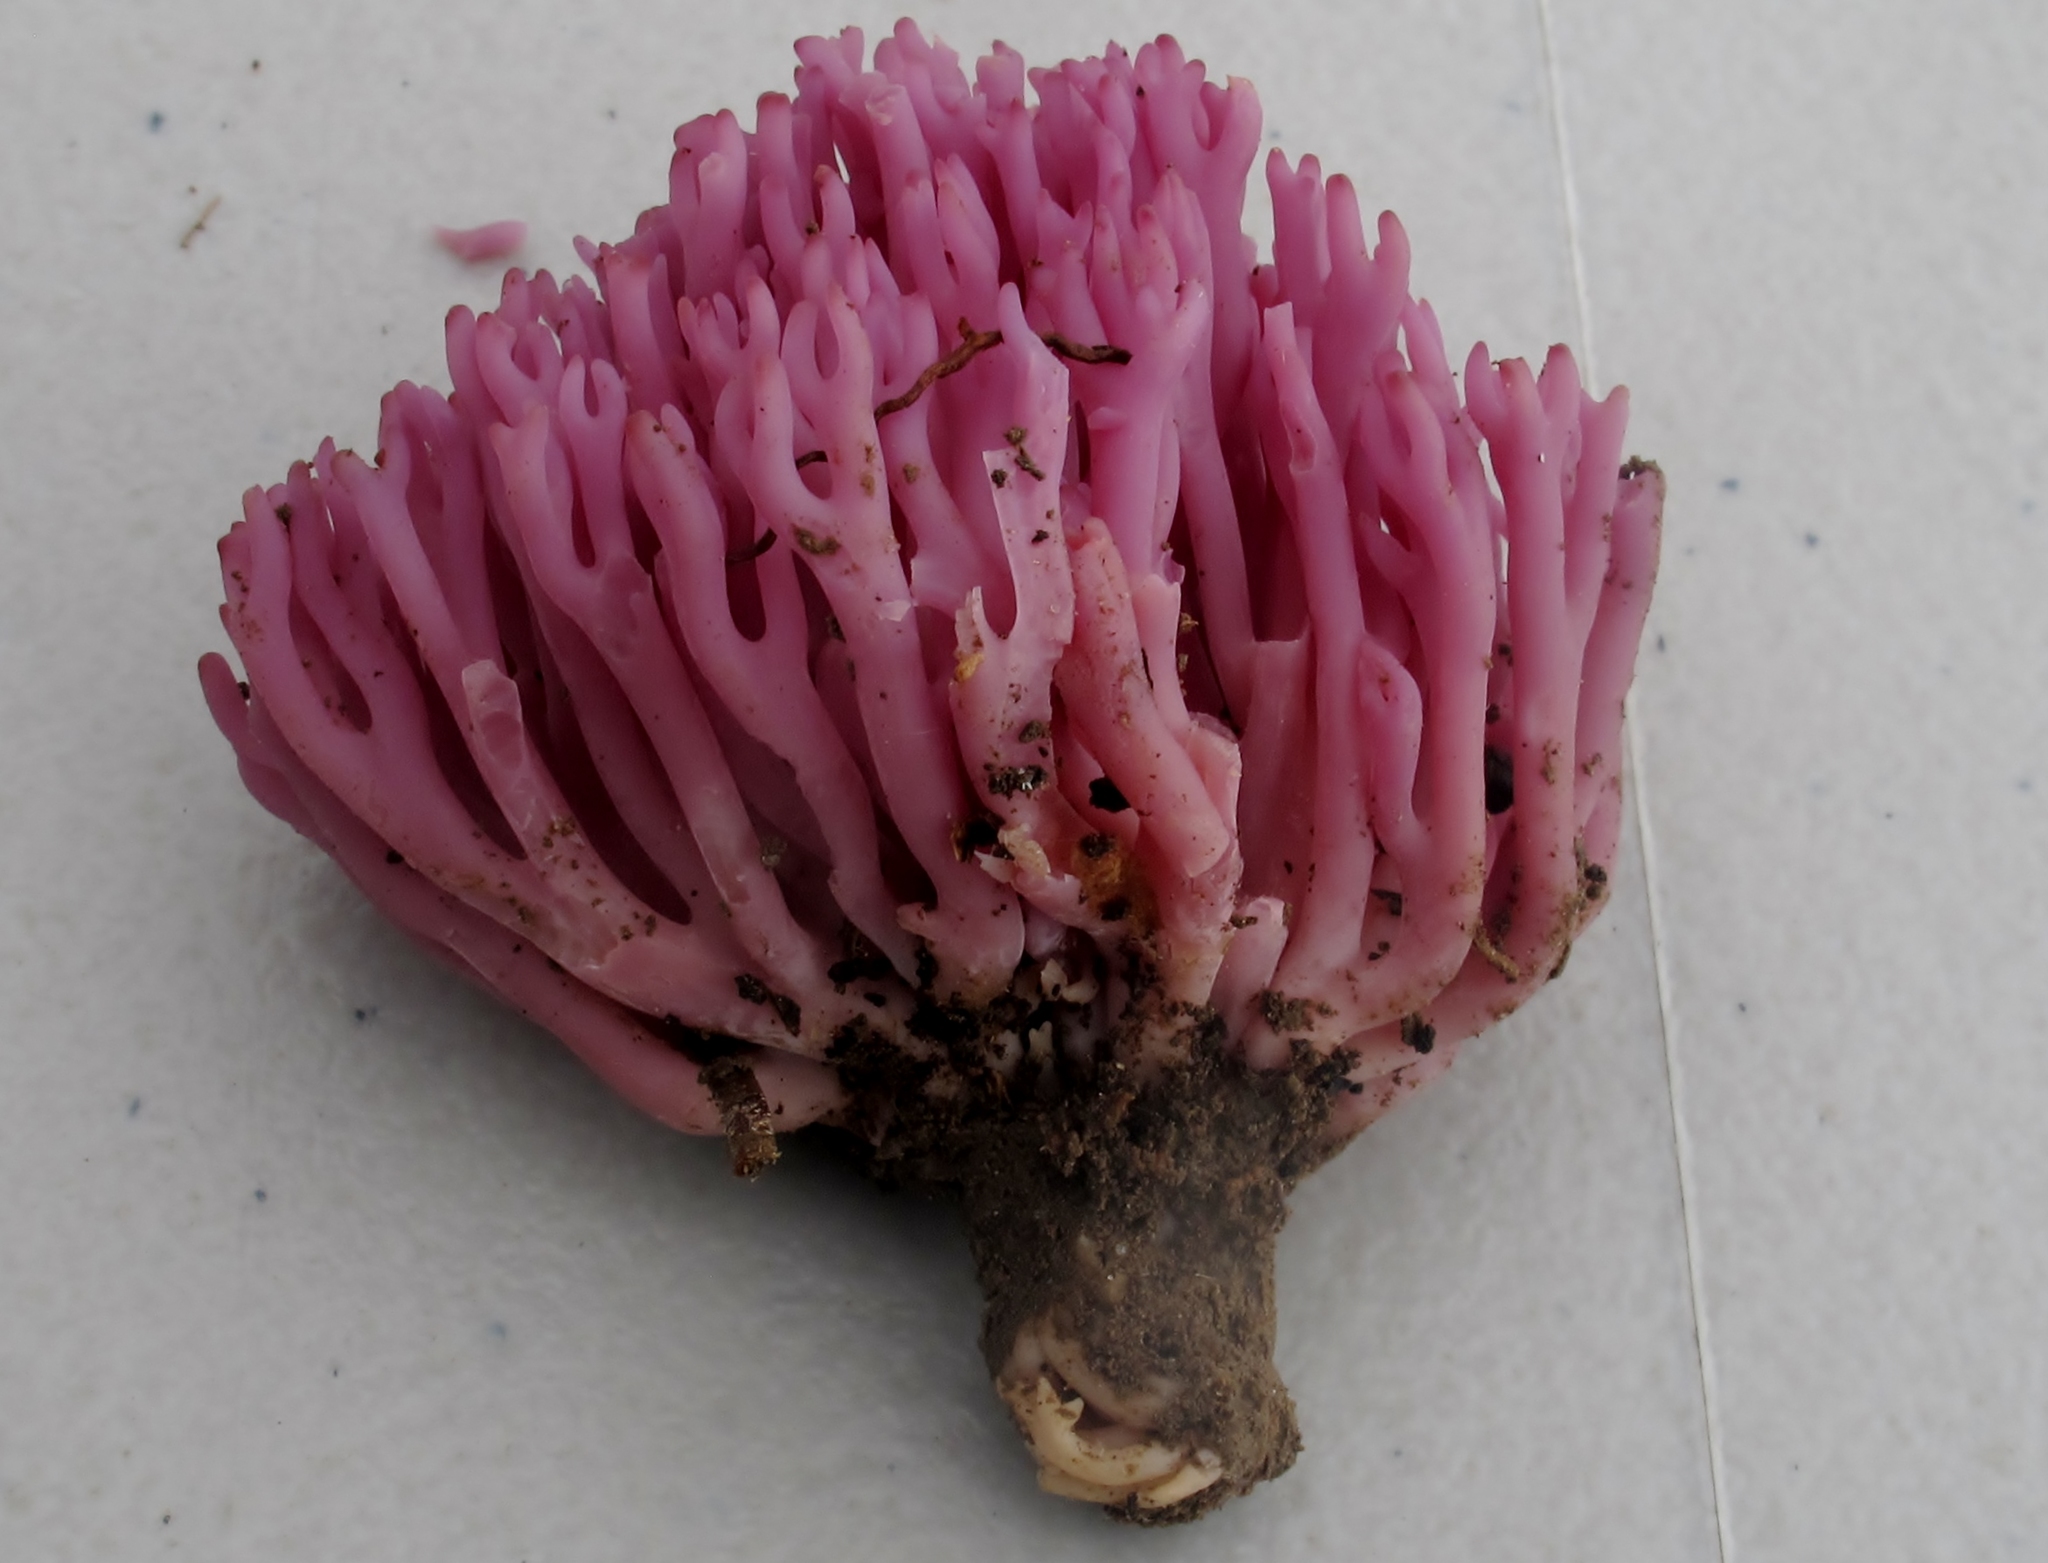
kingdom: Fungi
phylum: Basidiomycota
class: Agaricomycetes
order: Agaricales
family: Clavariaceae
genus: Clavaria
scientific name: Clavaria zollingeri
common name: Violet coral
